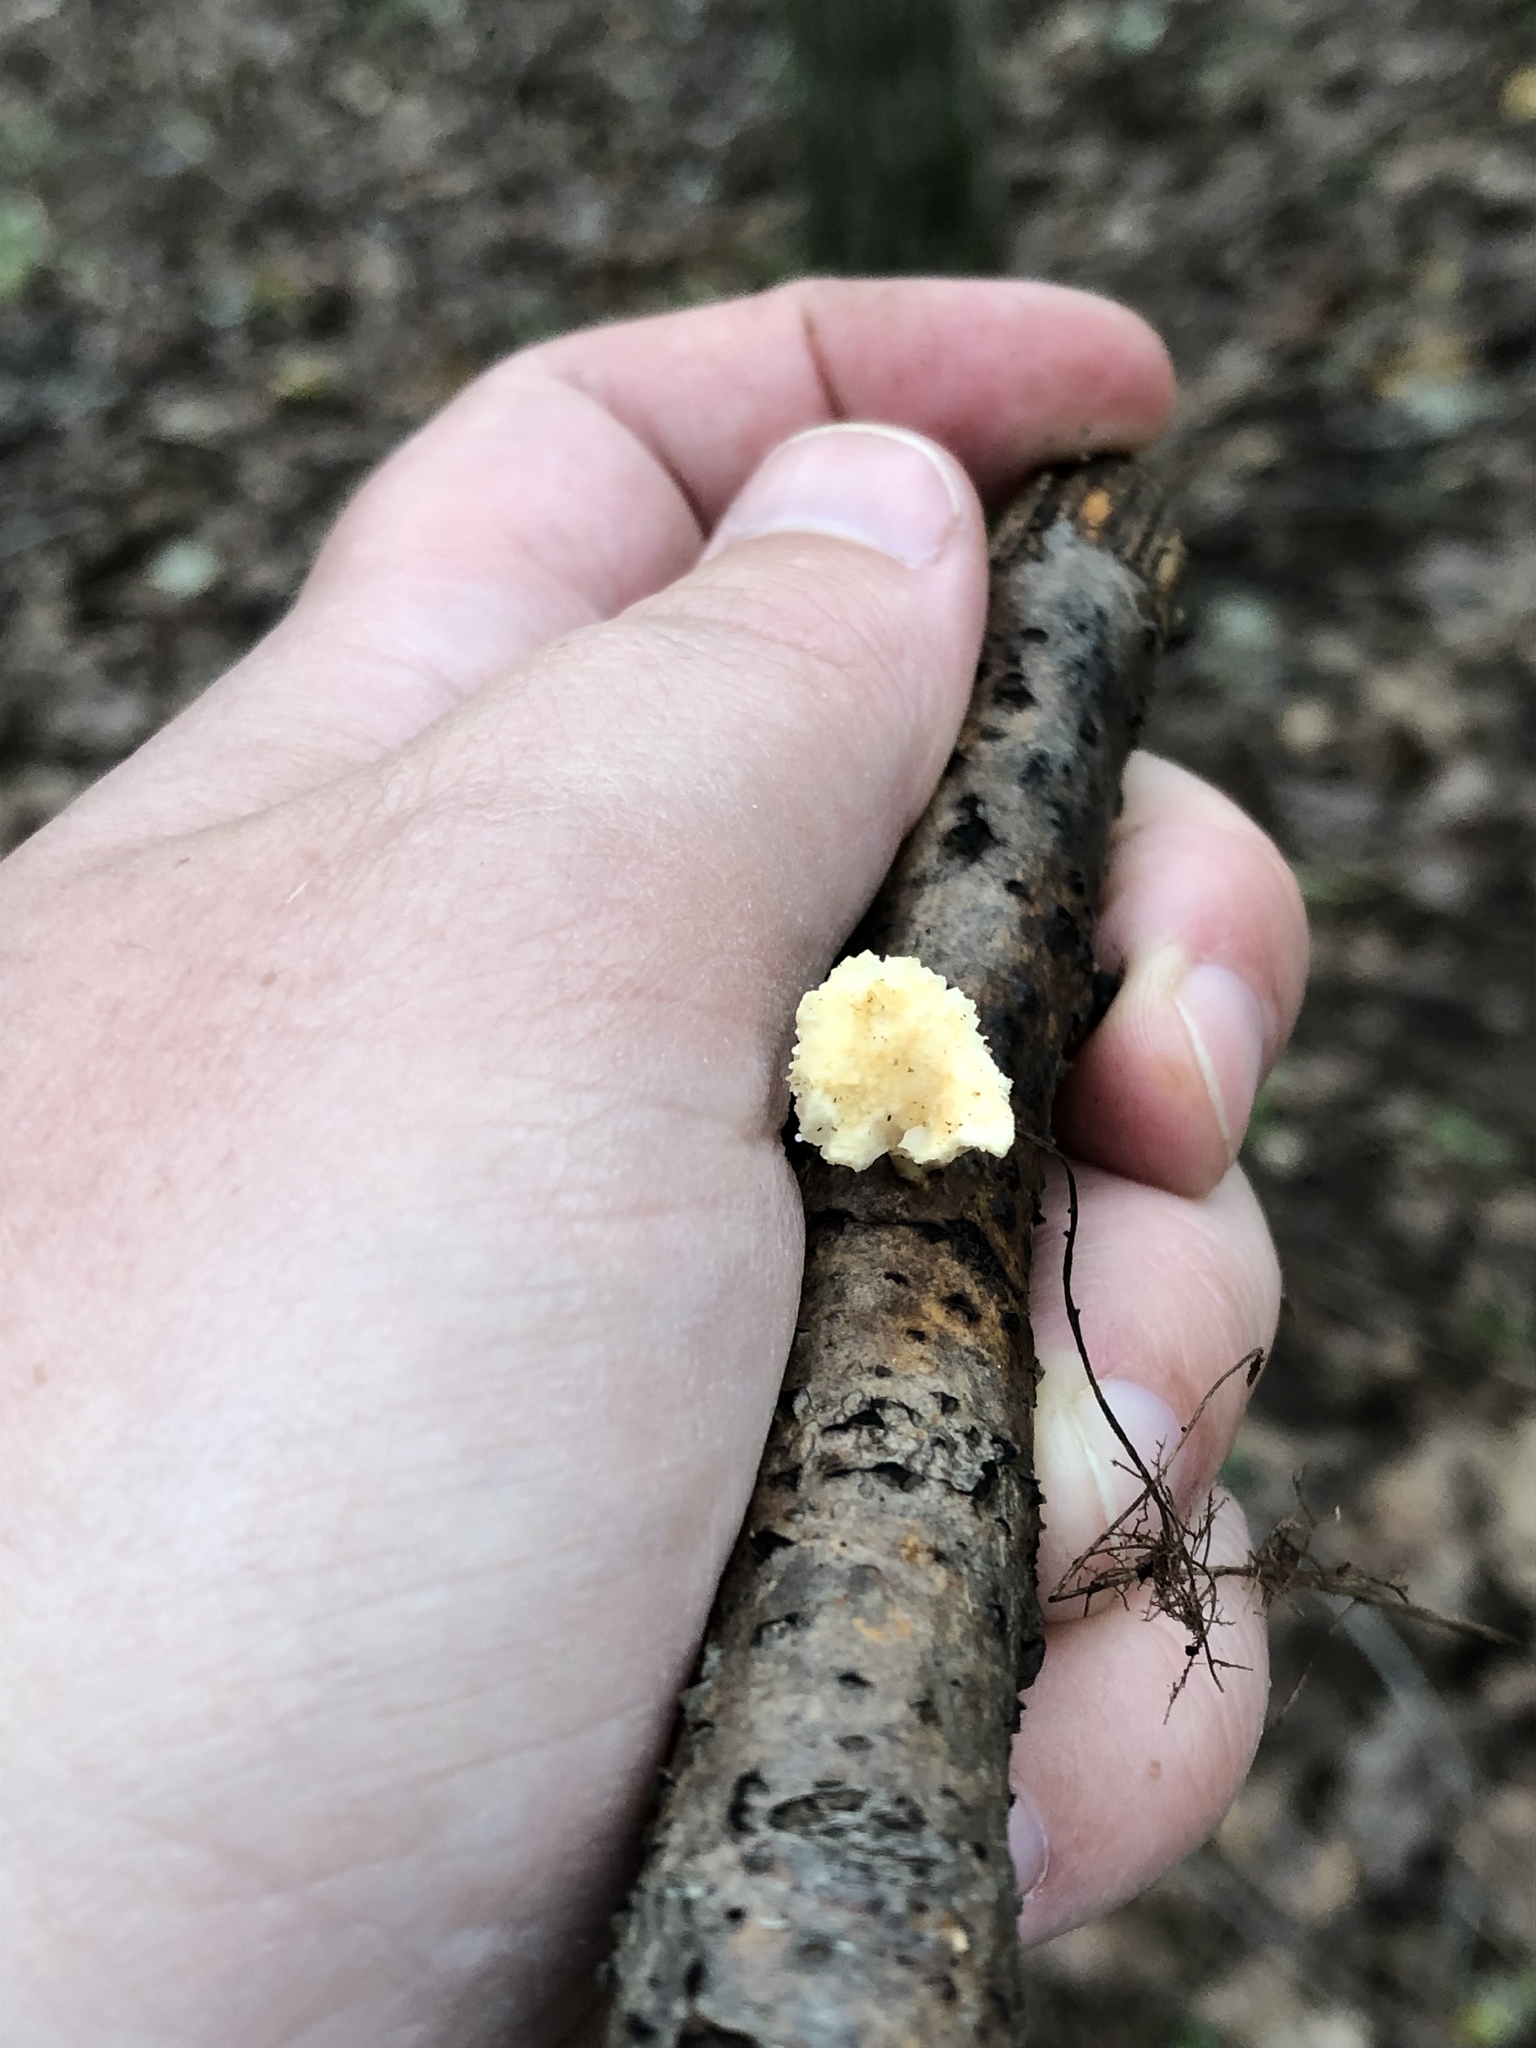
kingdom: Fungi
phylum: Basidiomycota
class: Agaricomycetes
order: Polyporales
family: Polyporaceae
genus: Neofavolus
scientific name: Neofavolus alveolaris
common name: Hexagonal-pored polypore
